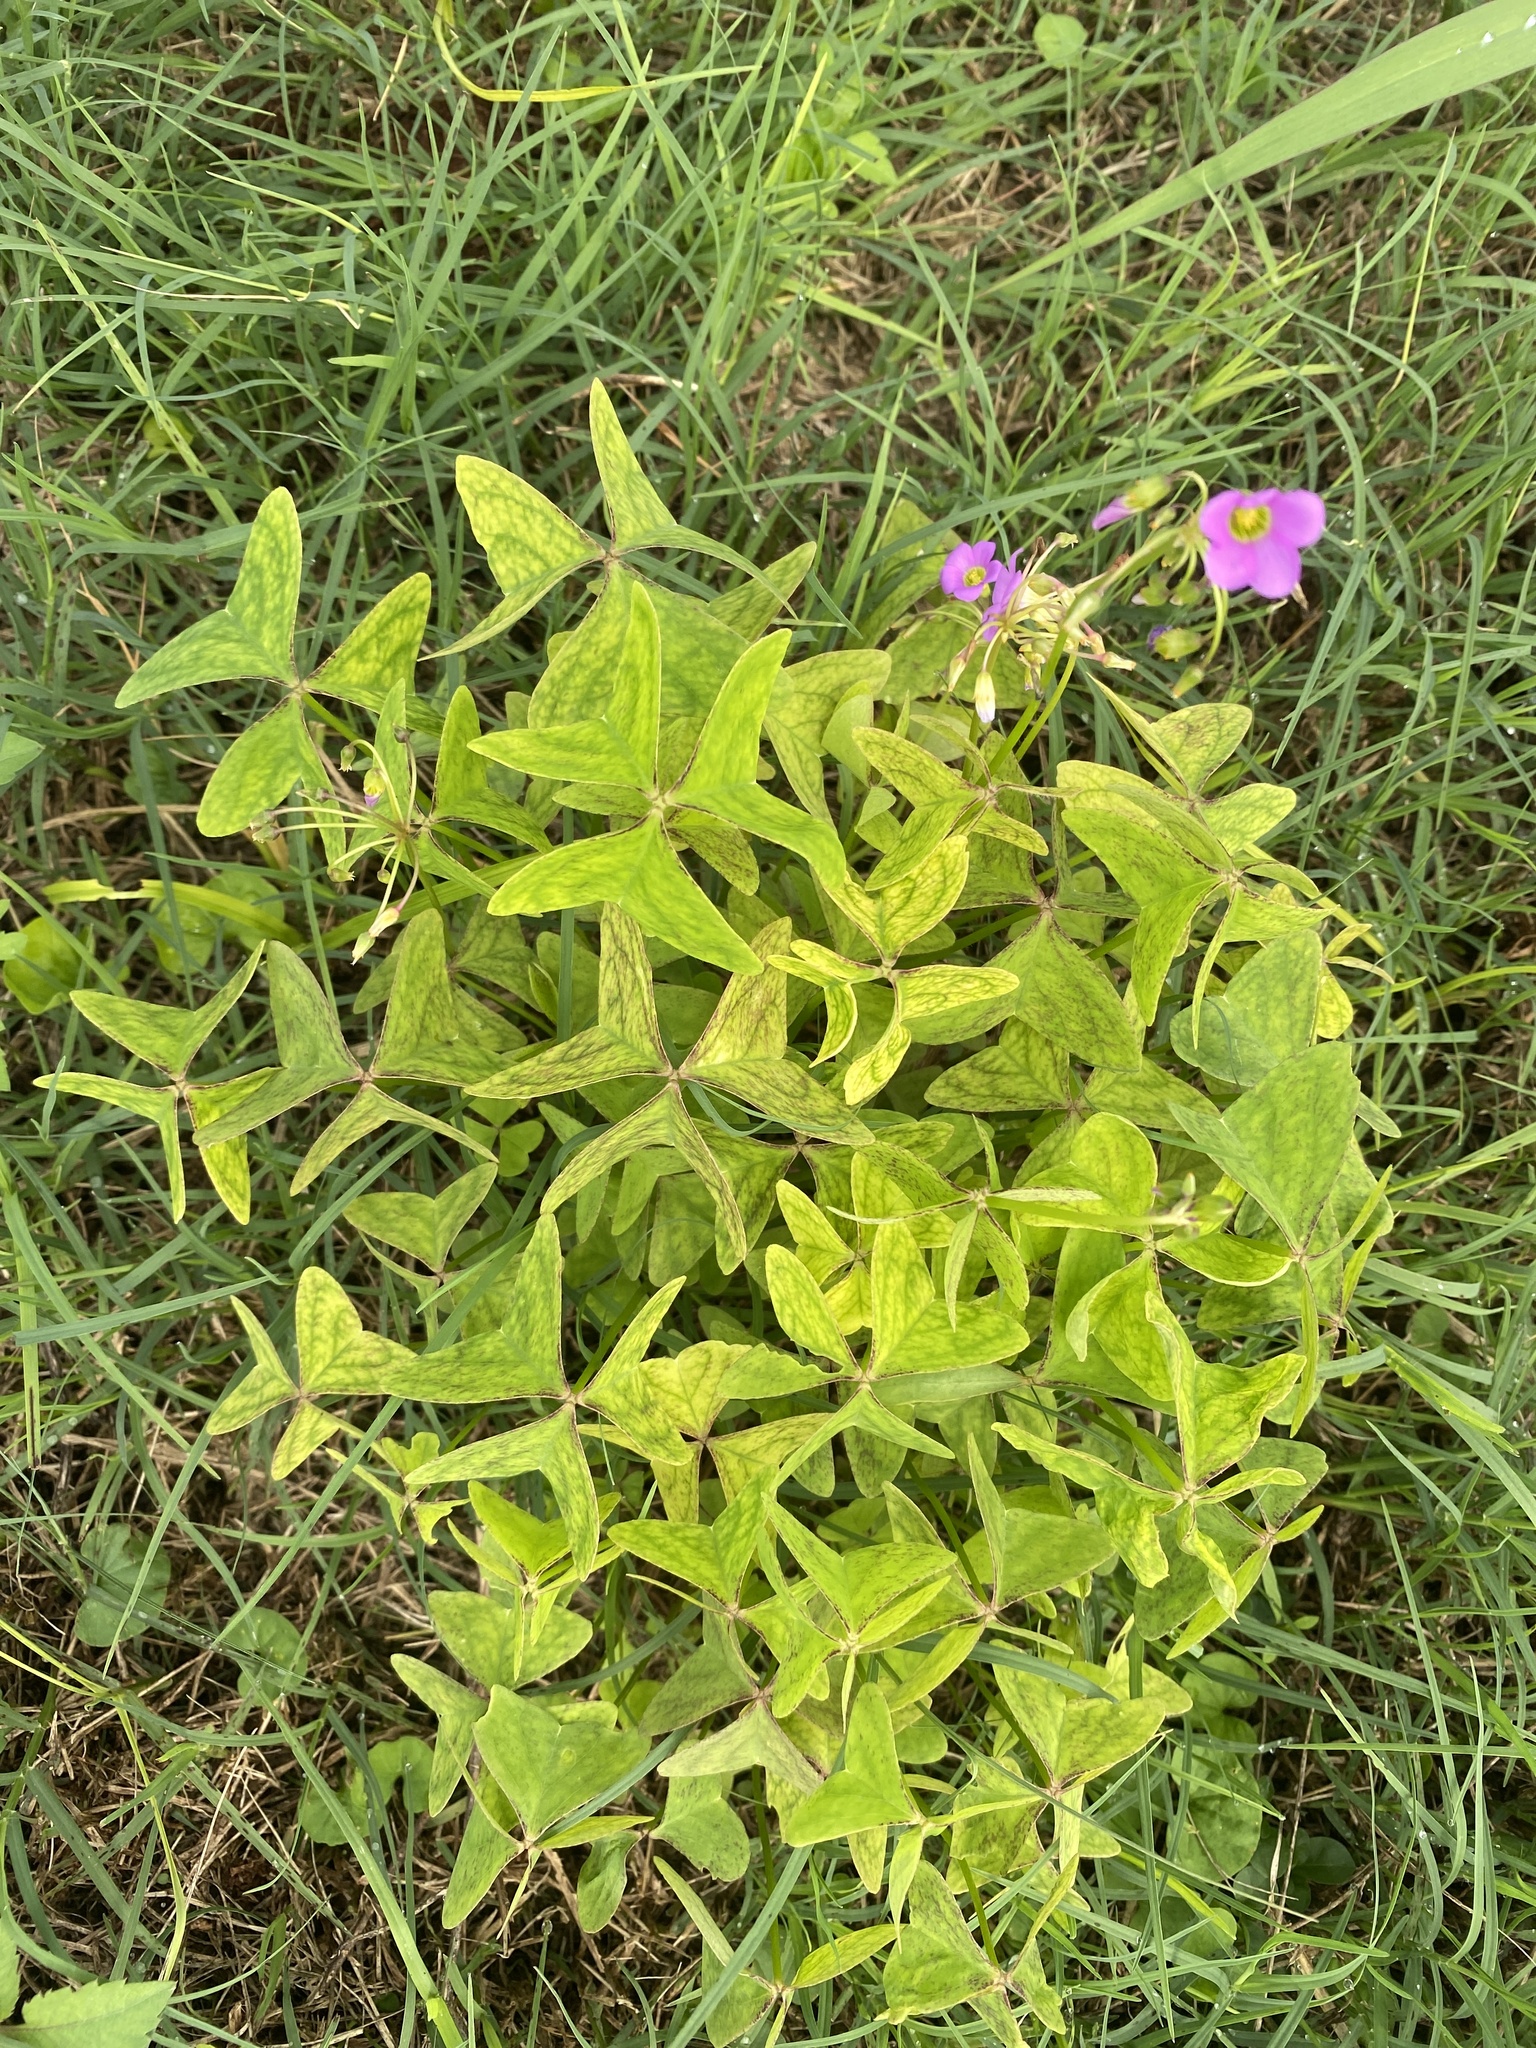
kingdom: Plantae
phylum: Tracheophyta
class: Magnoliopsida
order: Oxalidales
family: Oxalidaceae
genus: Oxalis
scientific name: Oxalis latifolia
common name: Garden pink-sorrel
